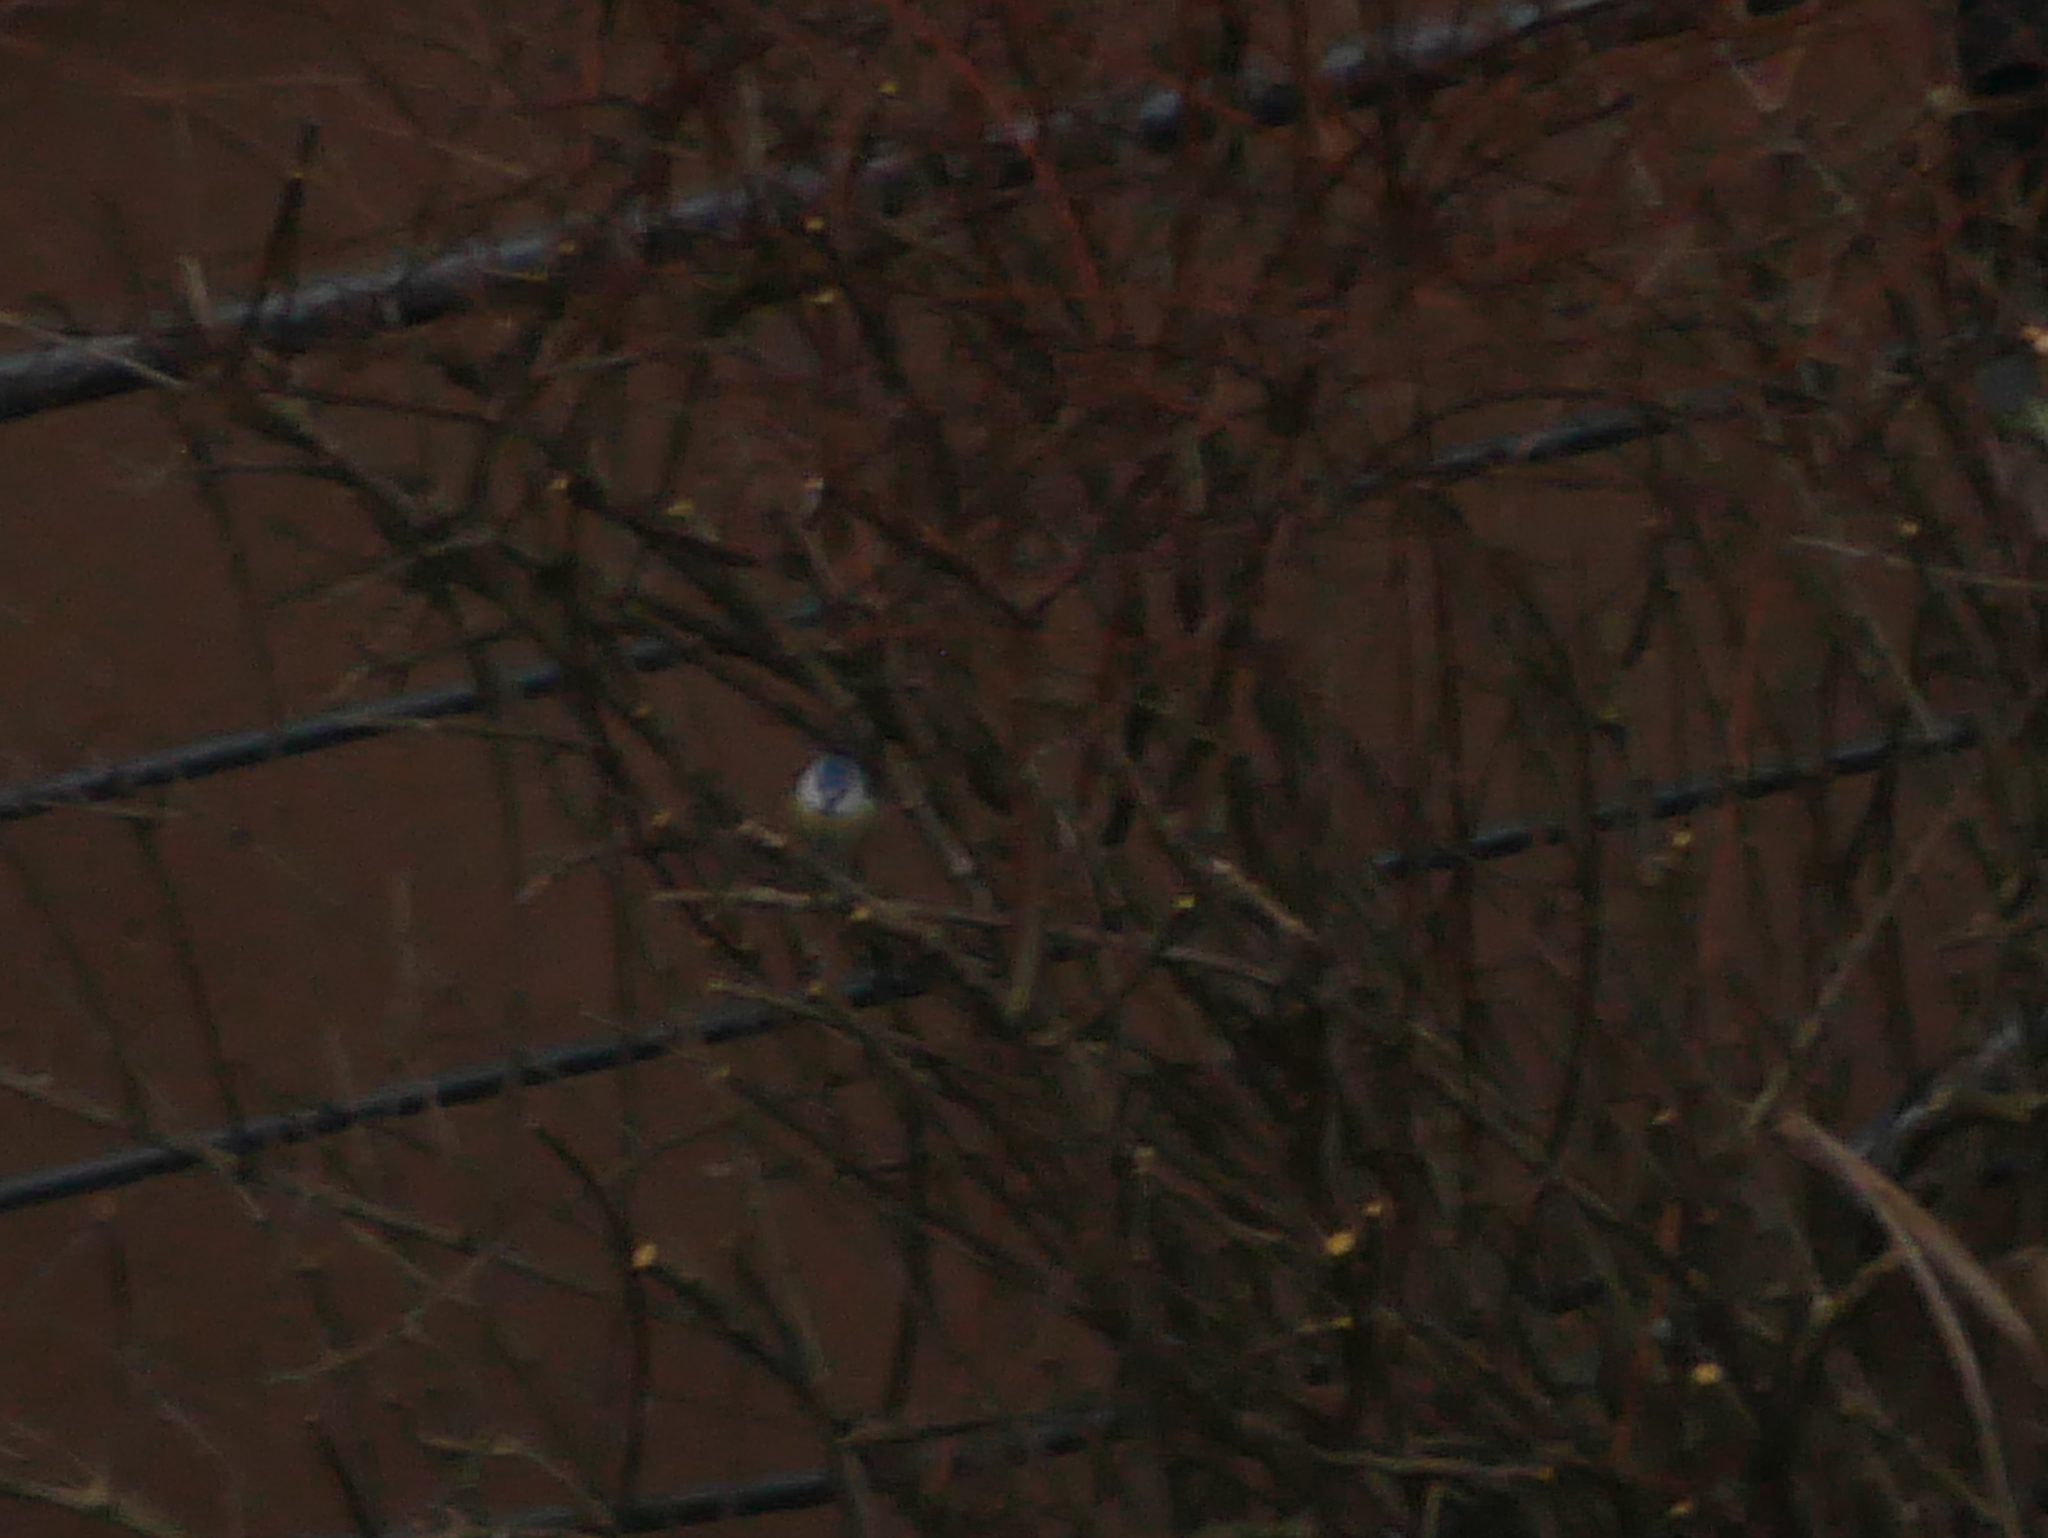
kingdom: Animalia
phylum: Chordata
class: Aves
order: Passeriformes
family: Paridae
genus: Cyanistes
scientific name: Cyanistes caeruleus
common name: Eurasian blue tit
